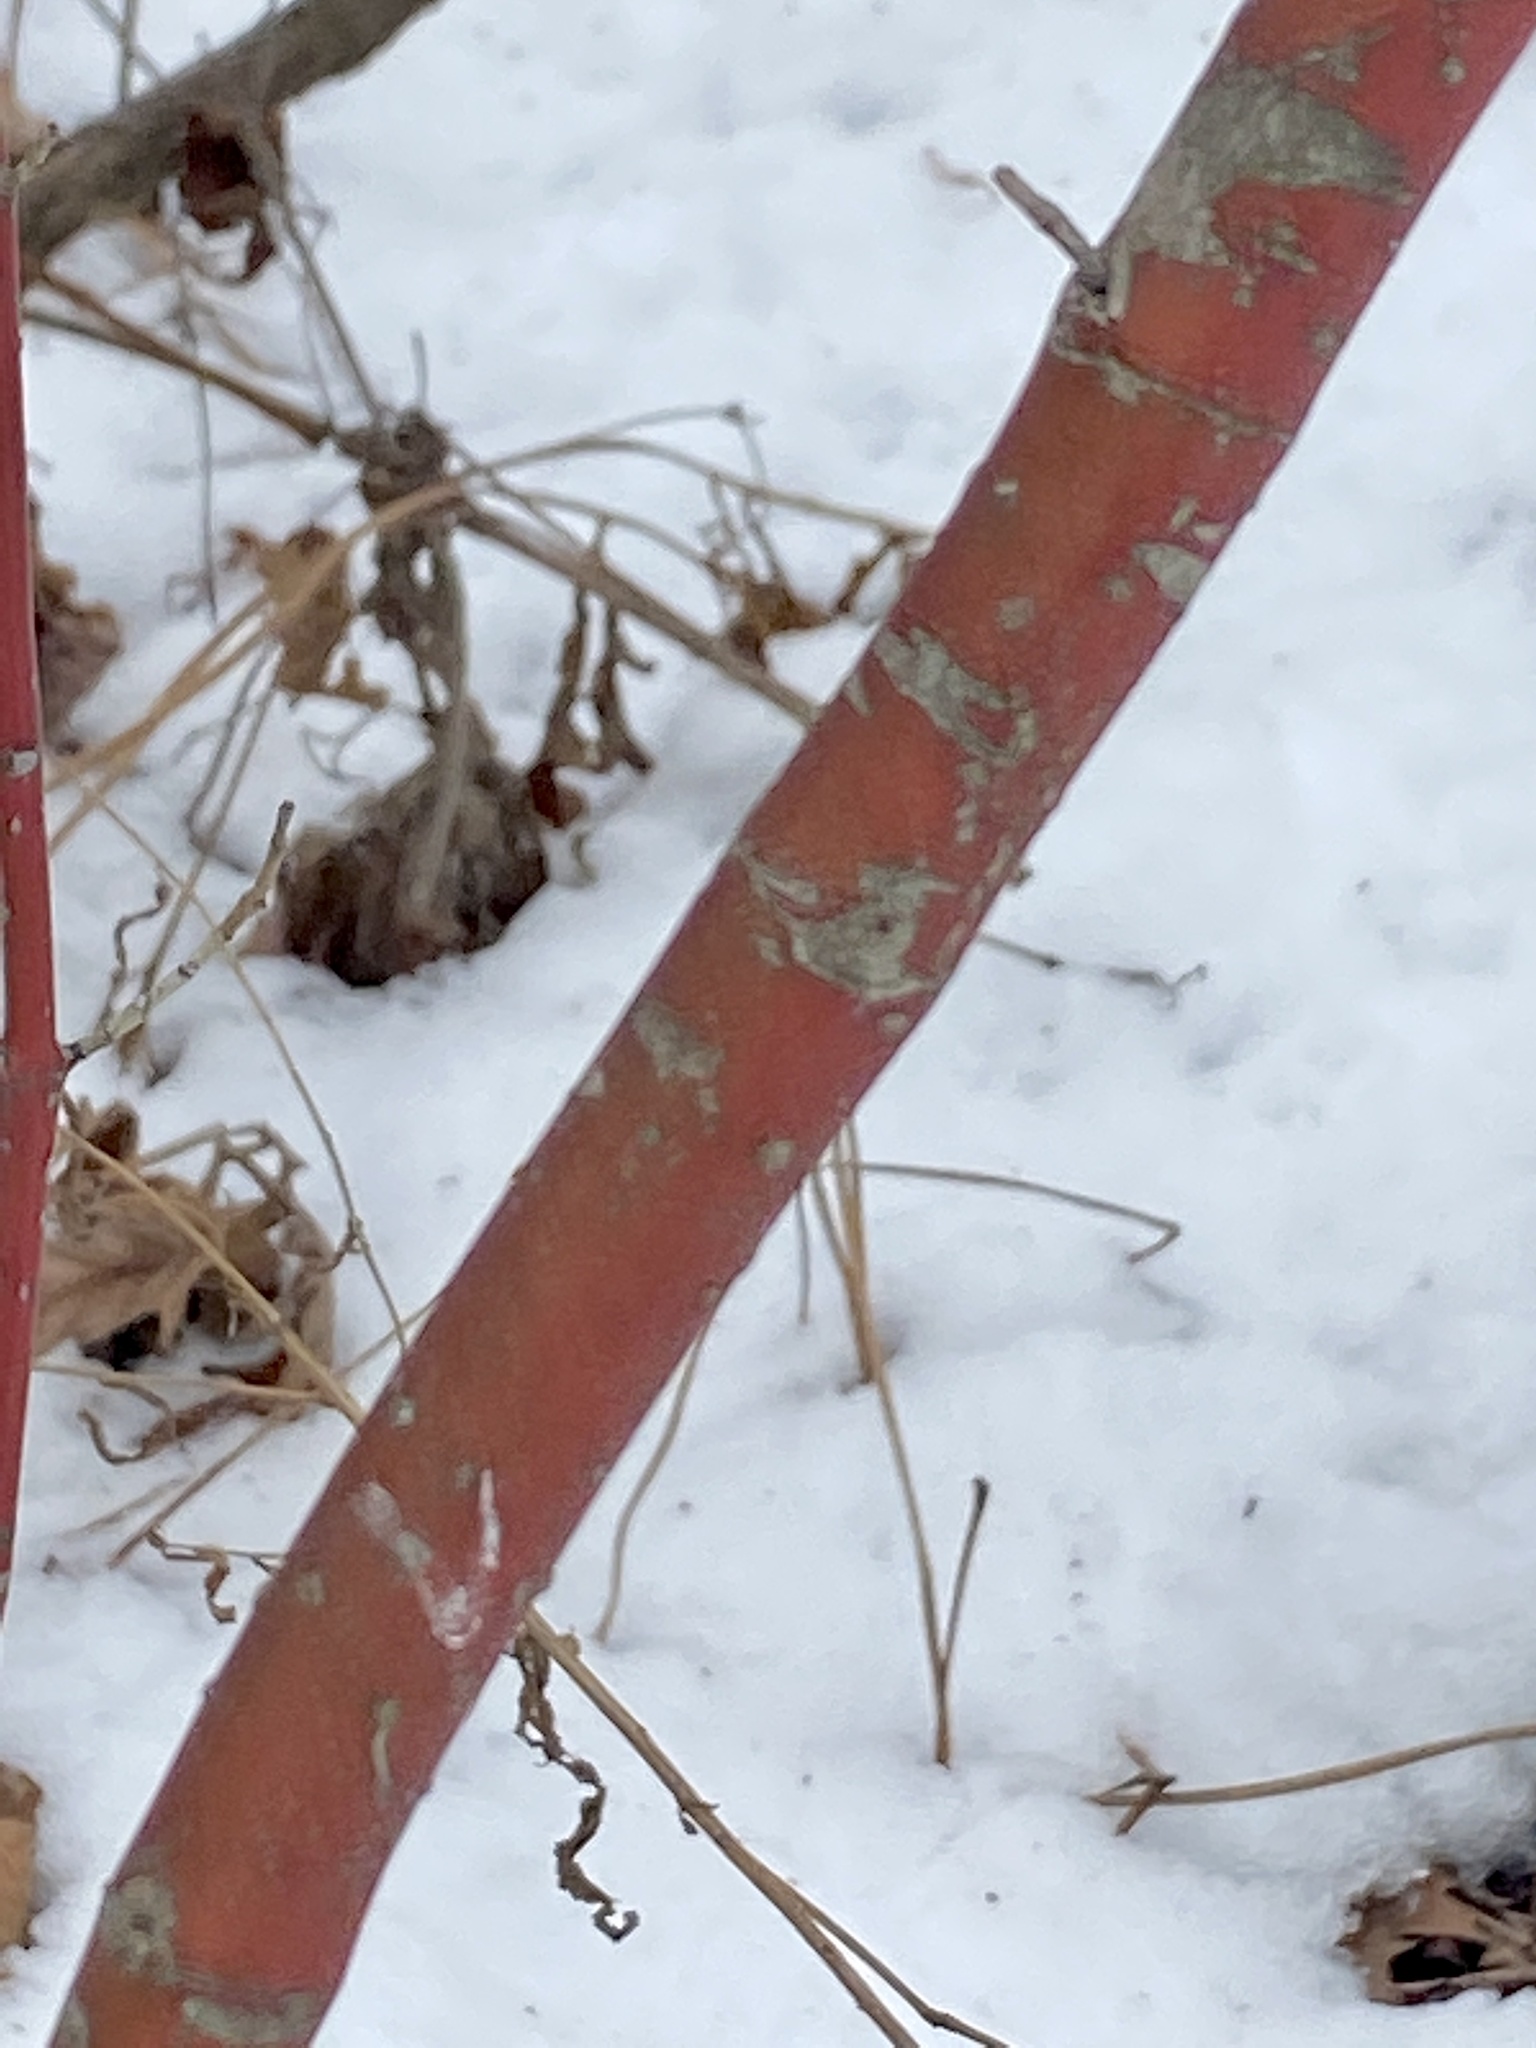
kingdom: Plantae
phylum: Tracheophyta
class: Magnoliopsida
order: Cornales
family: Cornaceae
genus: Cornus
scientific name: Cornus amomum
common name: Silky dogwood
